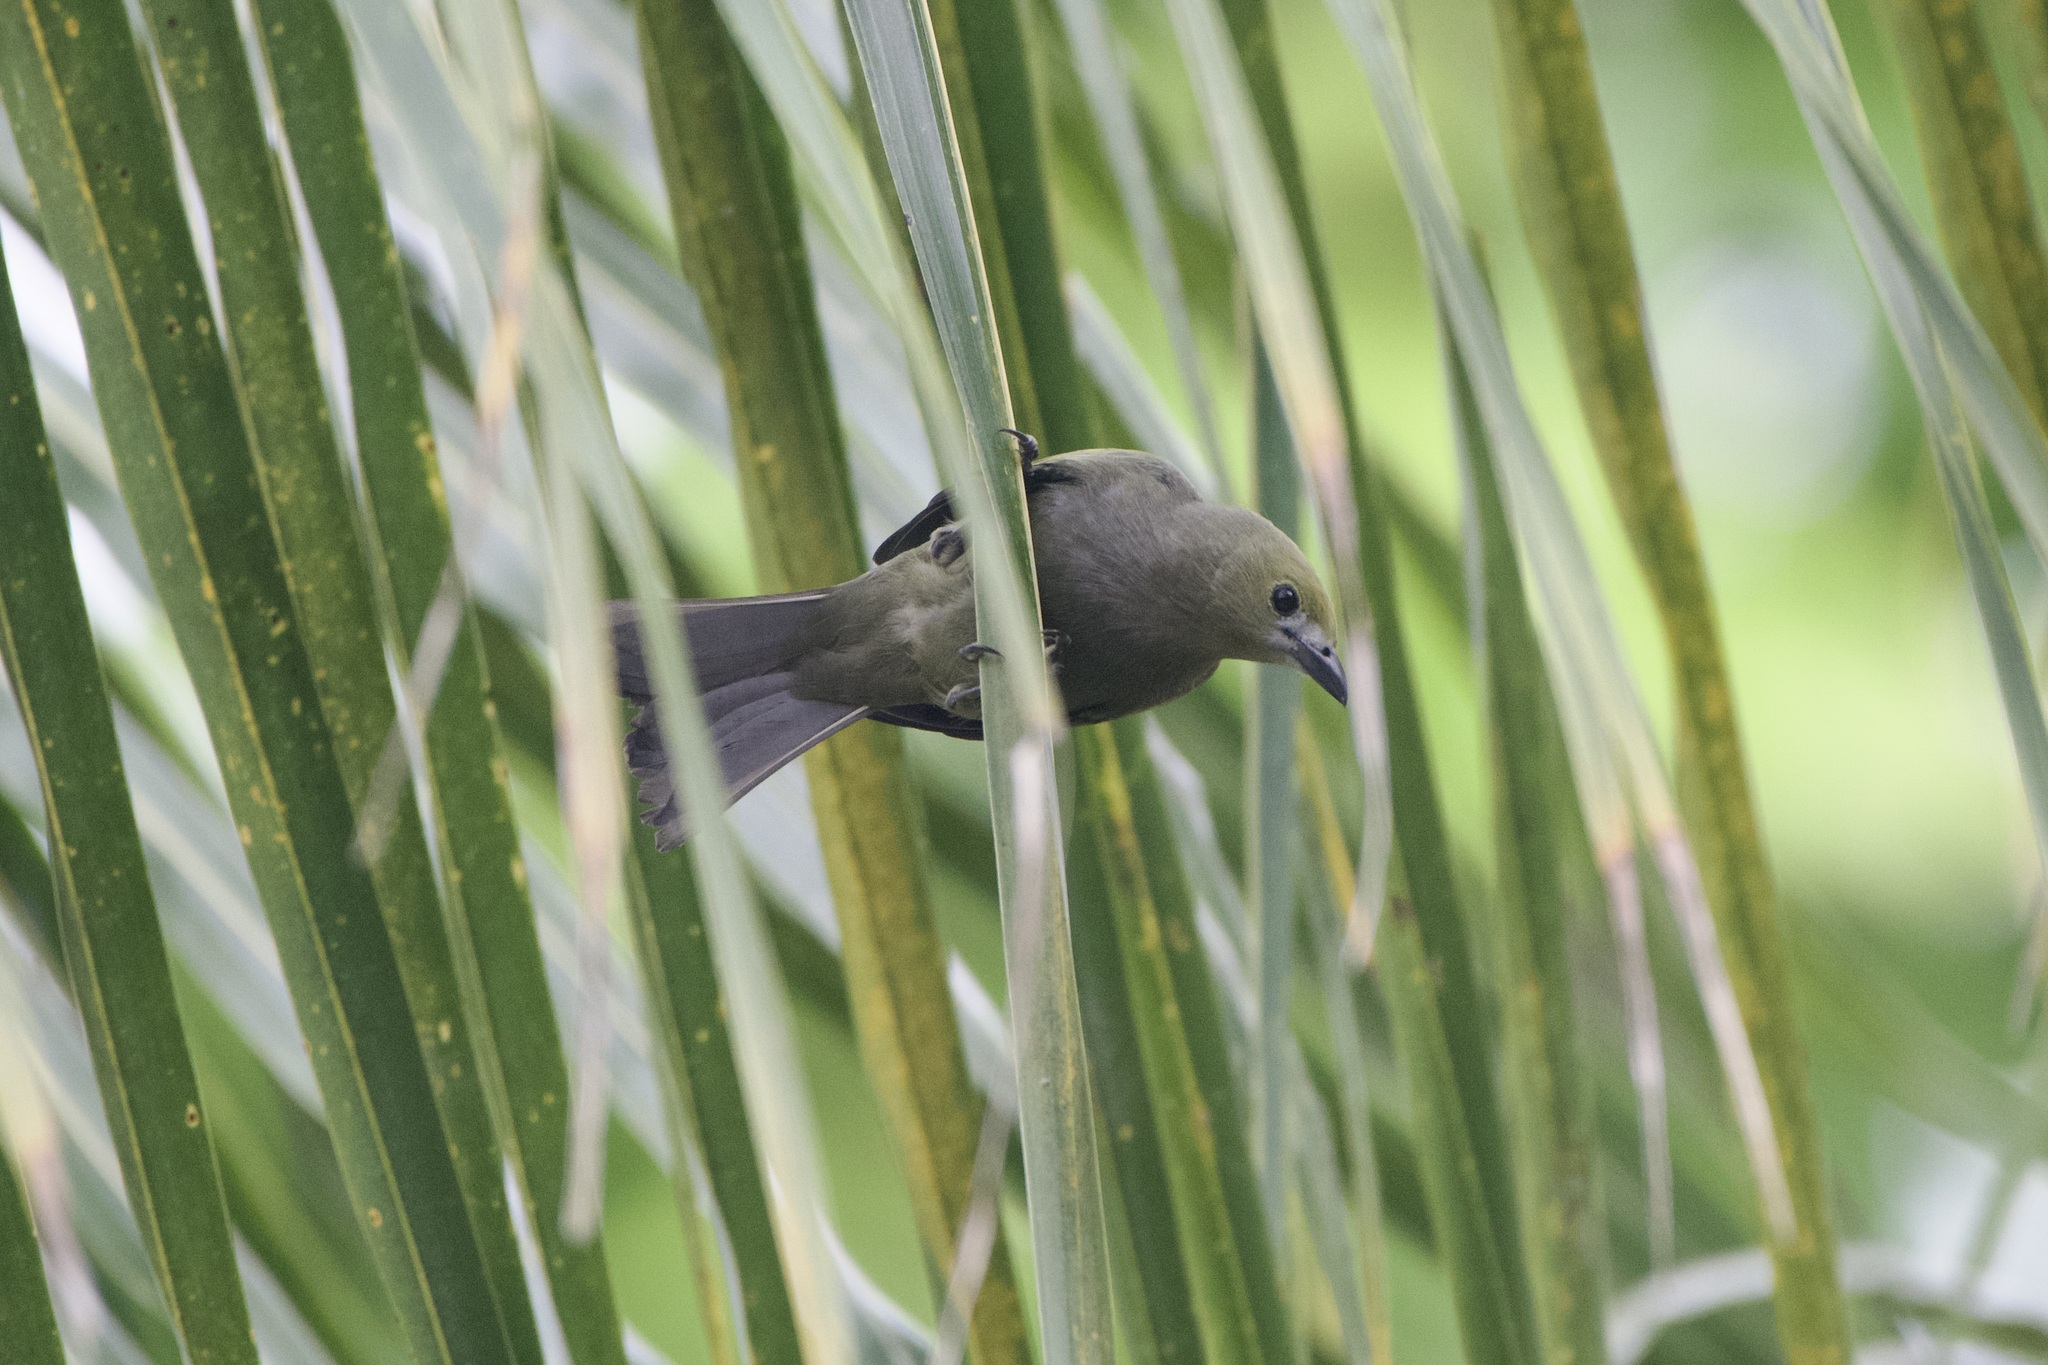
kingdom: Animalia
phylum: Chordata
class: Aves
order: Passeriformes
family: Thraupidae
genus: Thraupis
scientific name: Thraupis palmarum
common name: Palm tanager
